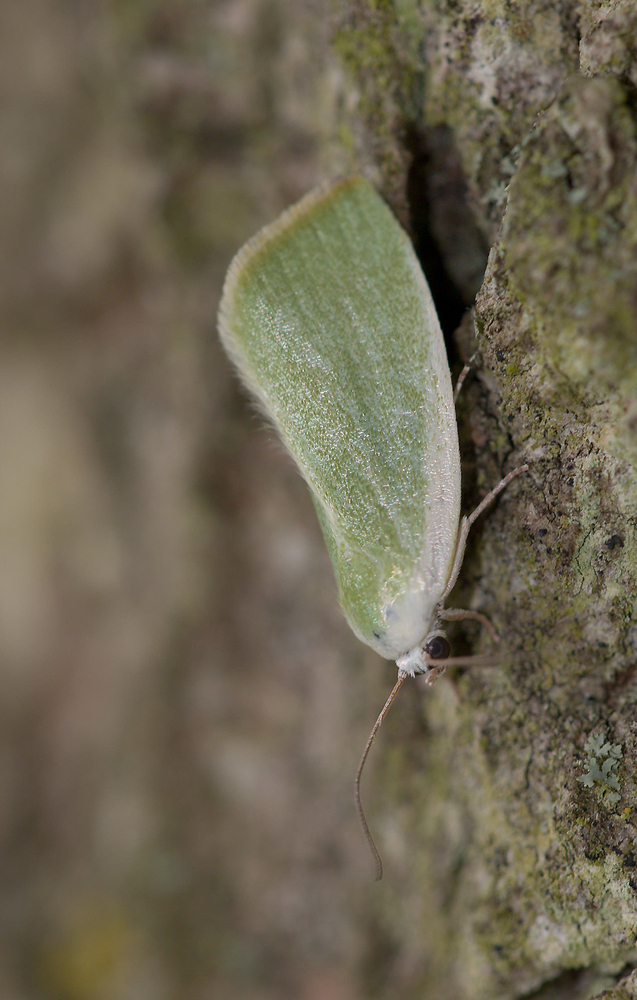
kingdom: Animalia
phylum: Arthropoda
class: Insecta
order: Lepidoptera
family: Nolidae
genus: Earias
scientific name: Earias clorana
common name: Cream-bordered green pea
